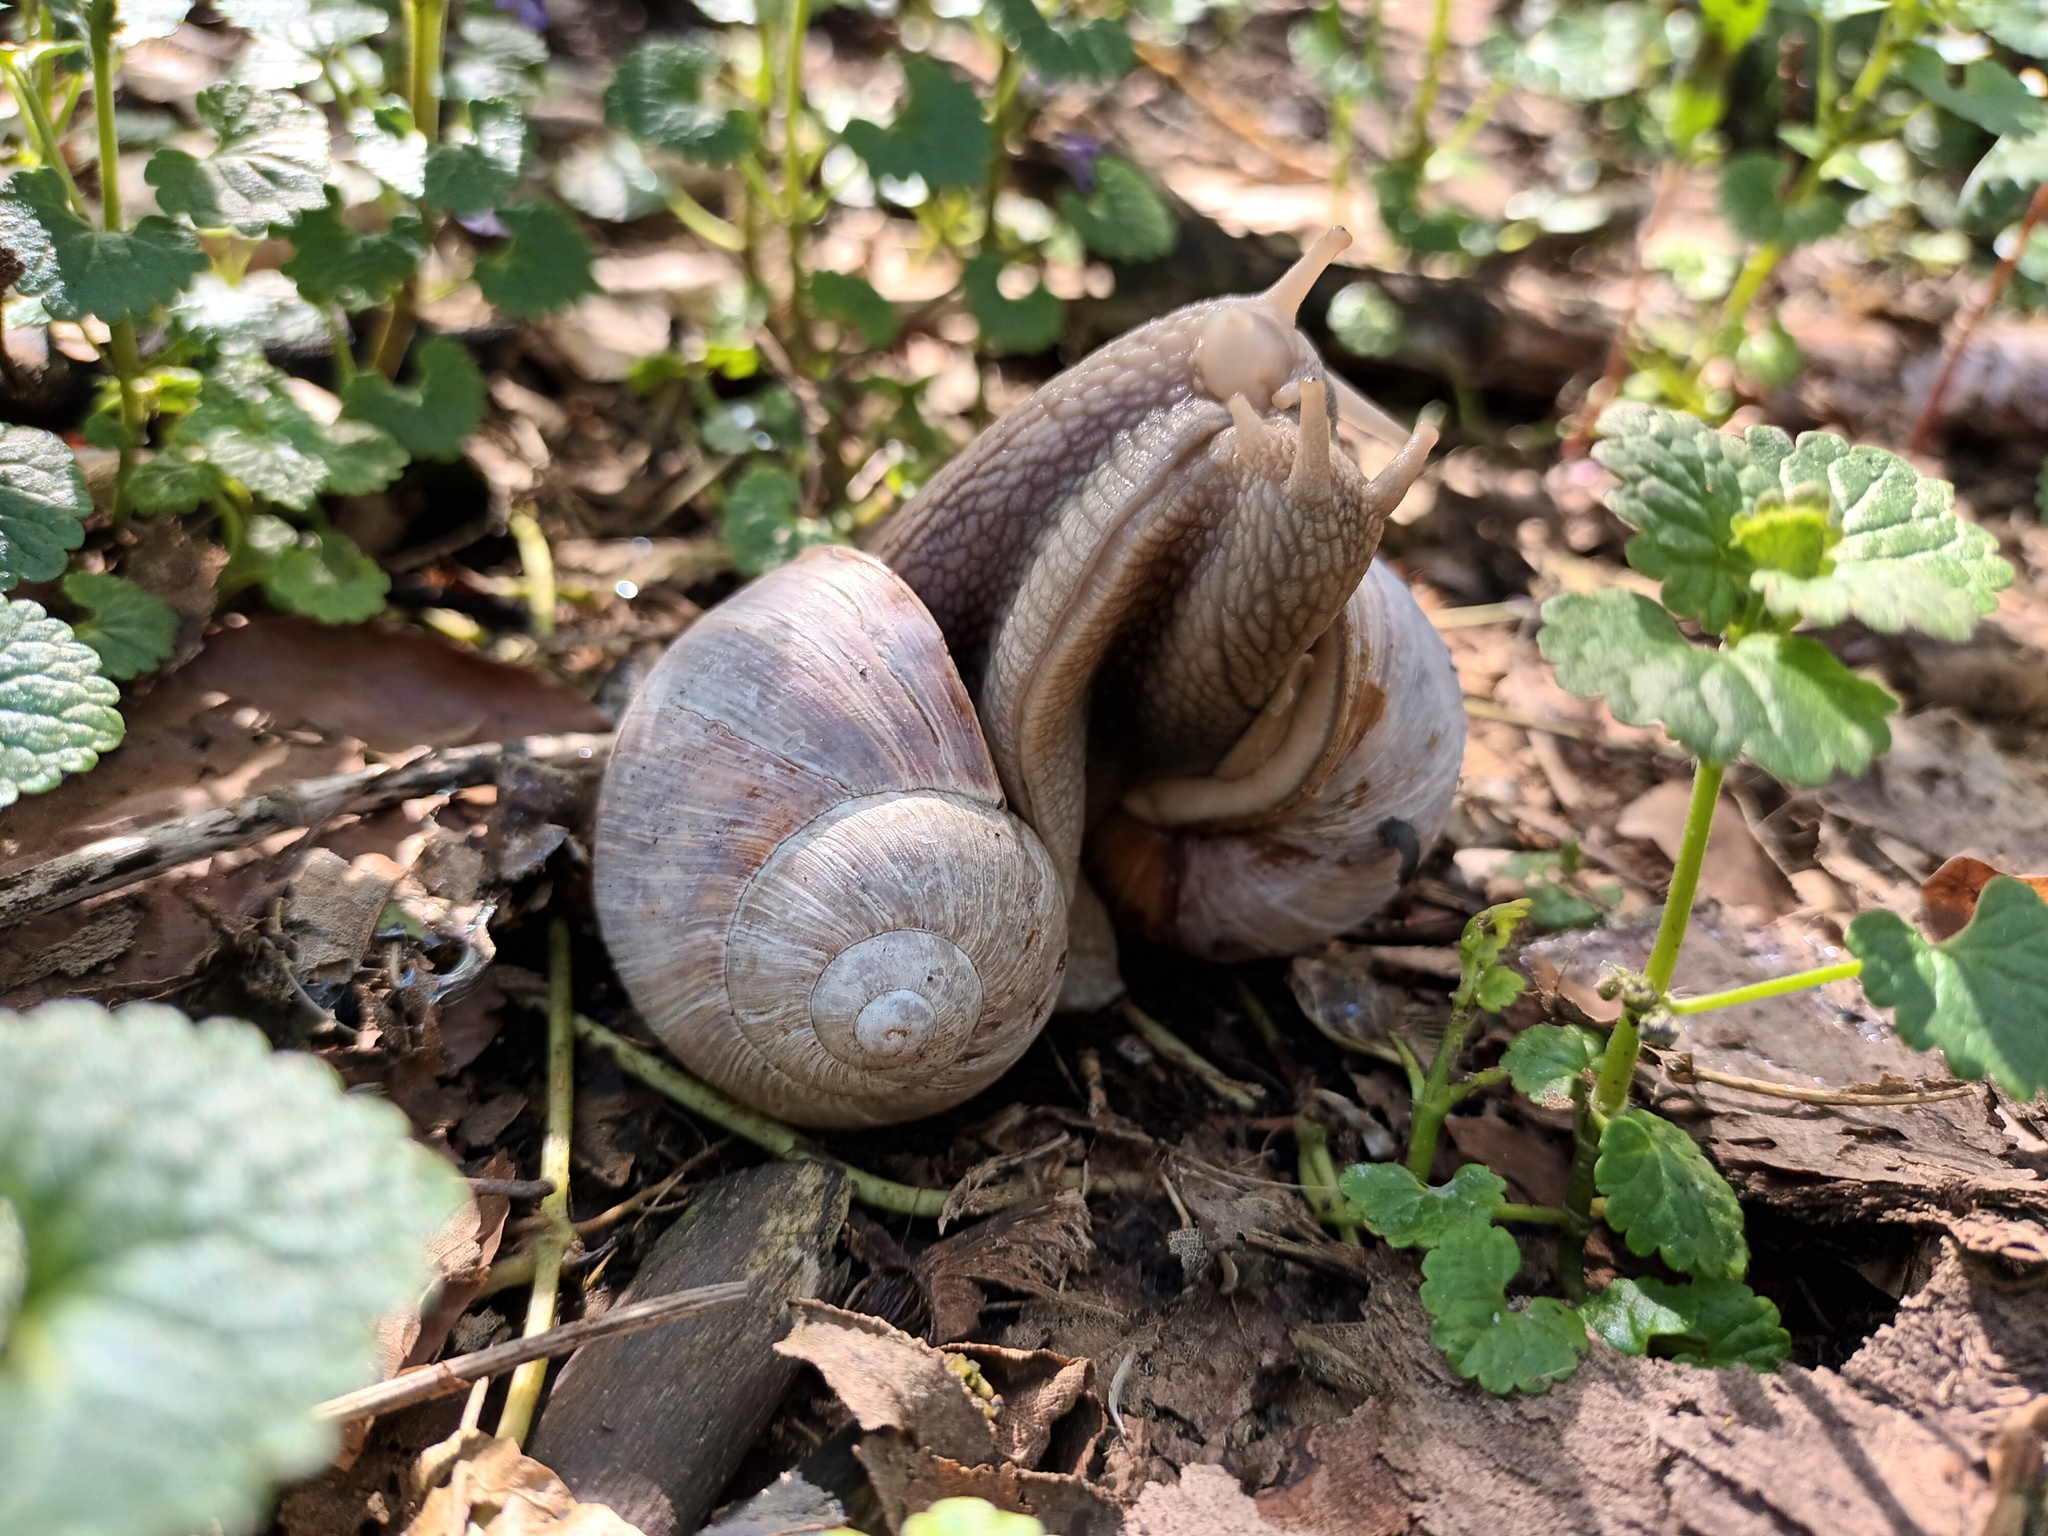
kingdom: Animalia
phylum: Mollusca
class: Gastropoda
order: Stylommatophora
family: Helicidae
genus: Helix
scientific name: Helix pomatia
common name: Roman snail
